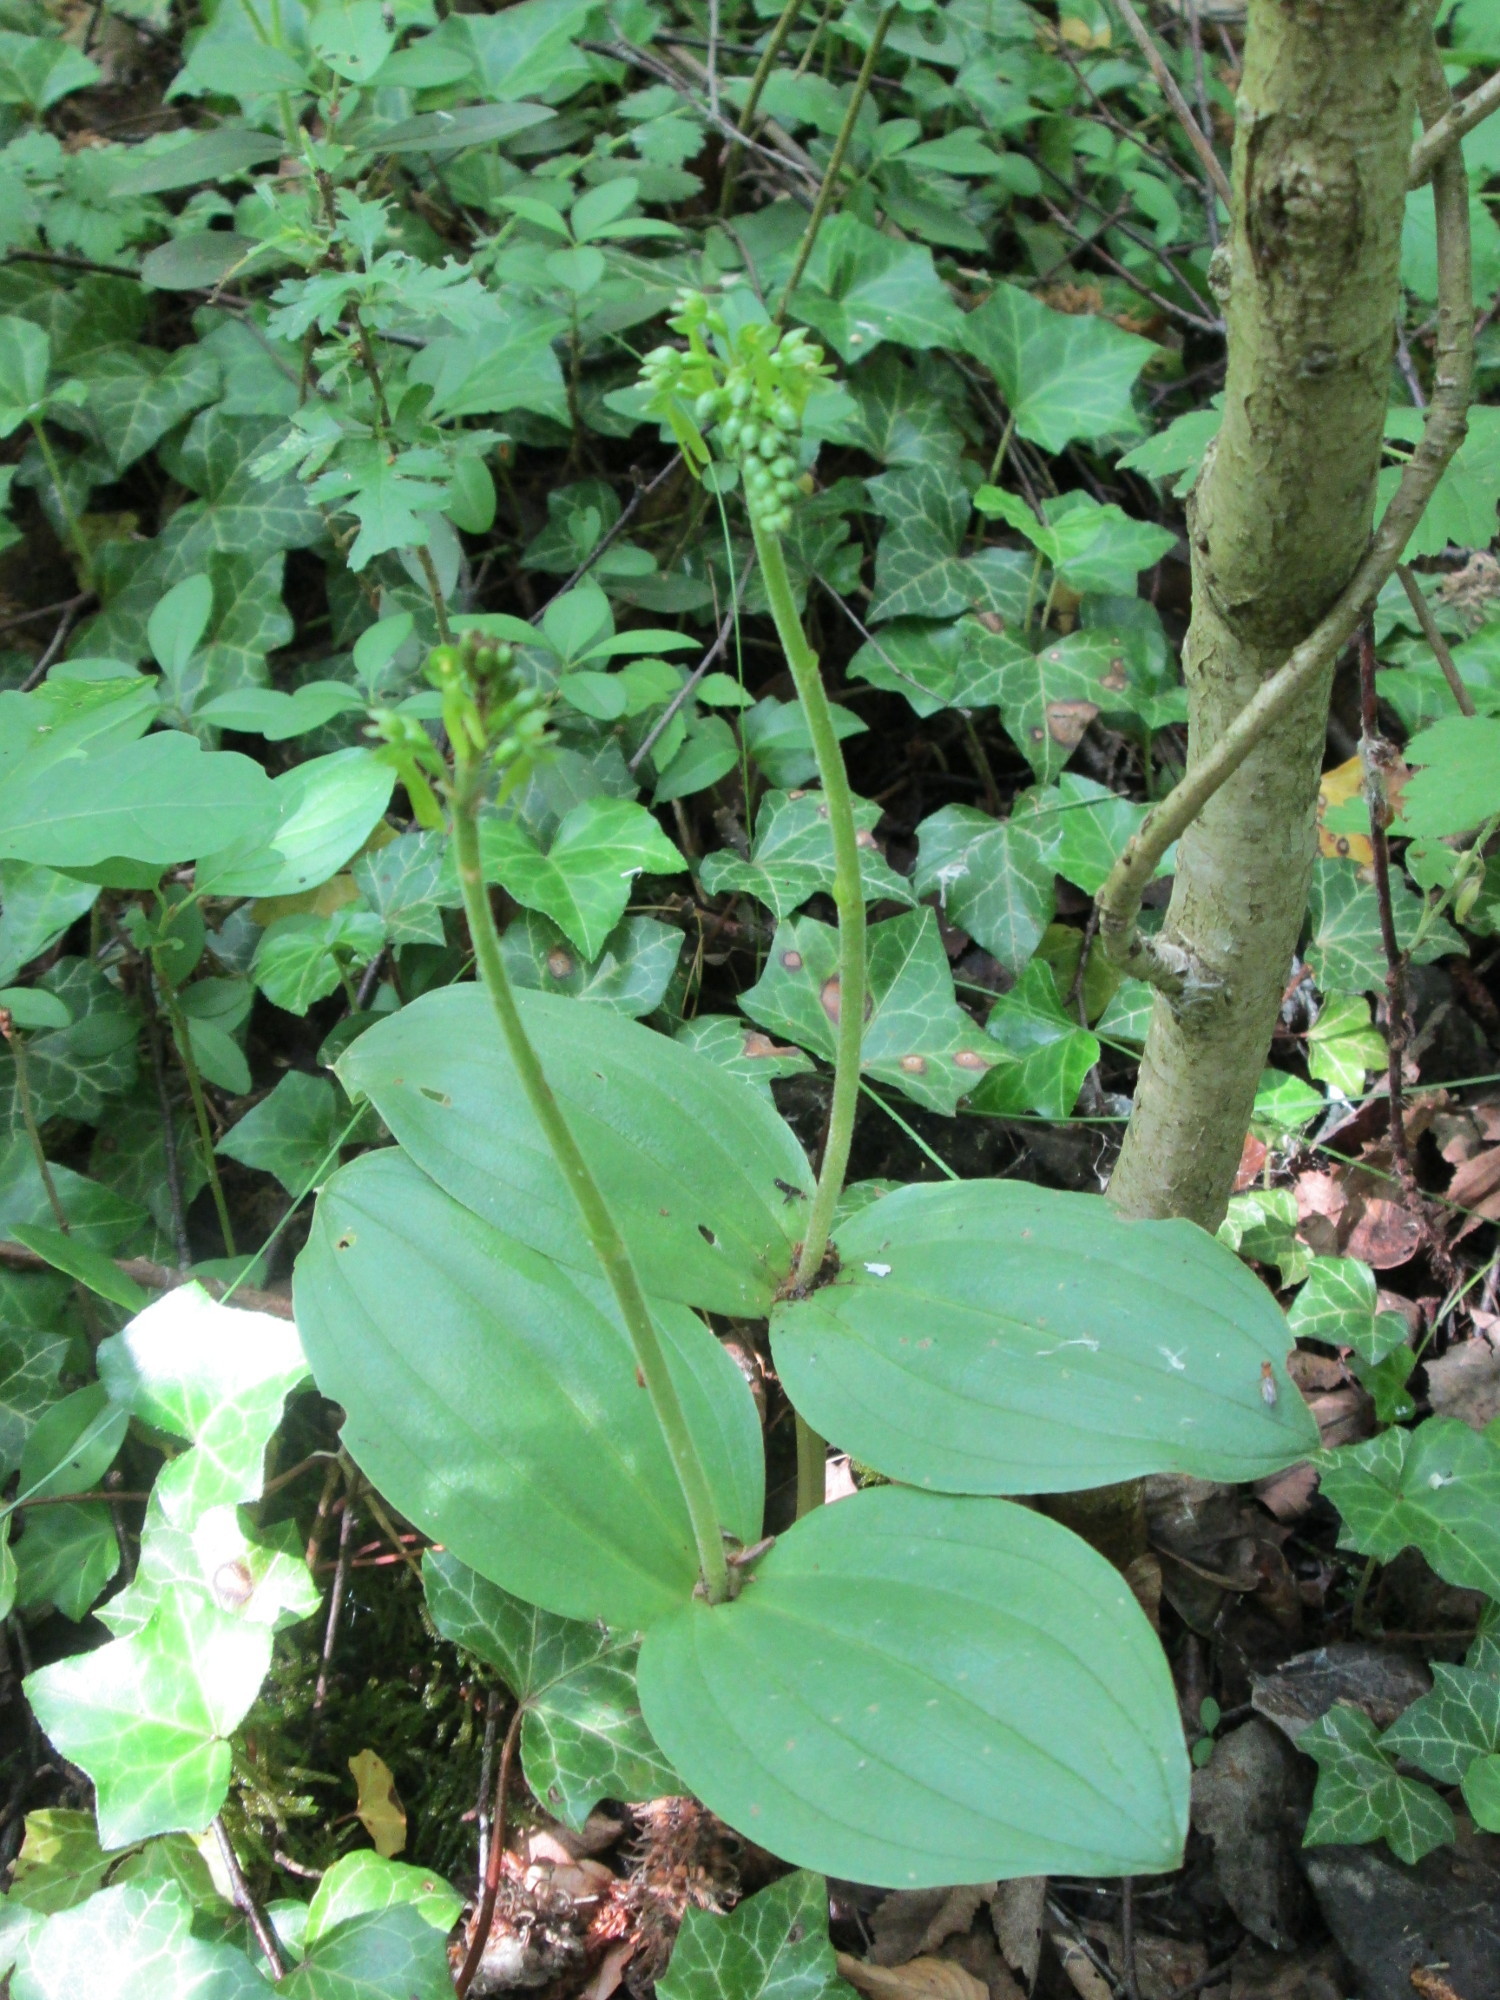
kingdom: Plantae
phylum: Tracheophyta
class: Liliopsida
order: Asparagales
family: Orchidaceae
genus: Neottia
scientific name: Neottia ovata
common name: Common twayblade
